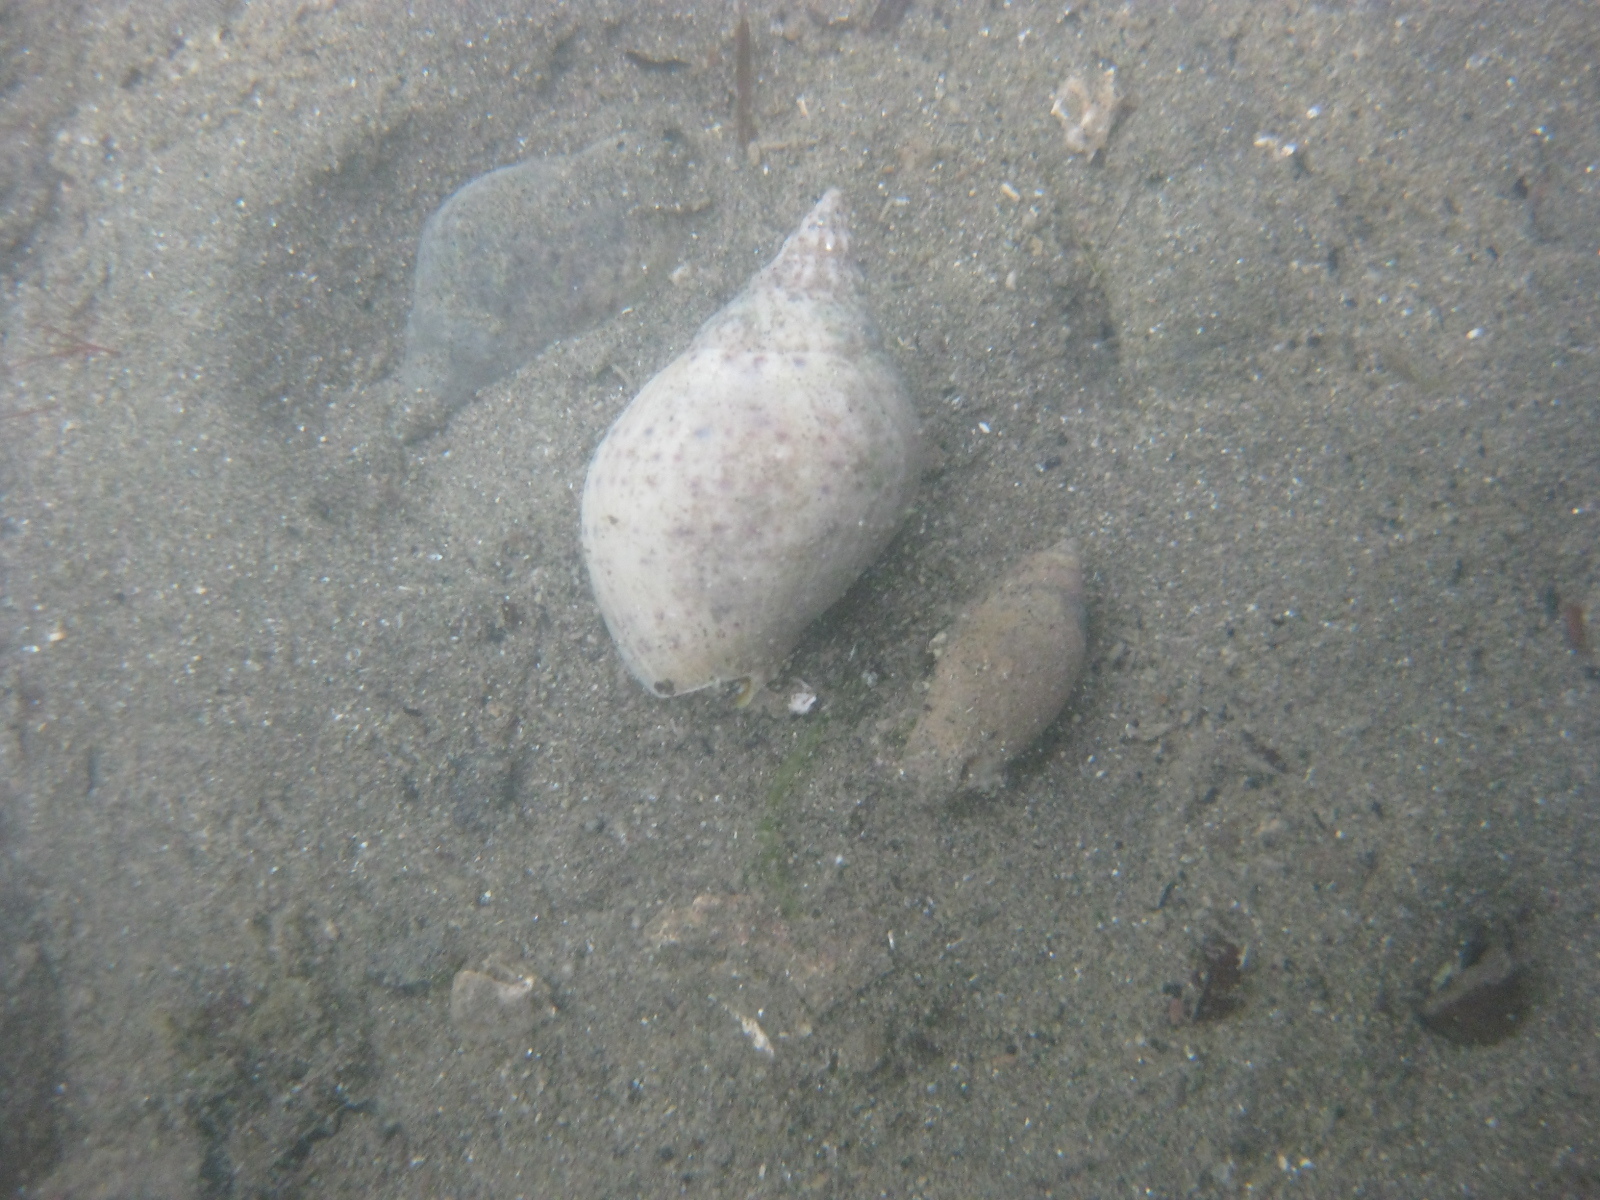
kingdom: Animalia
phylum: Mollusca
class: Gastropoda
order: Neogastropoda
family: Ancillariidae
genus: Amalda
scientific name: Amalda australis
